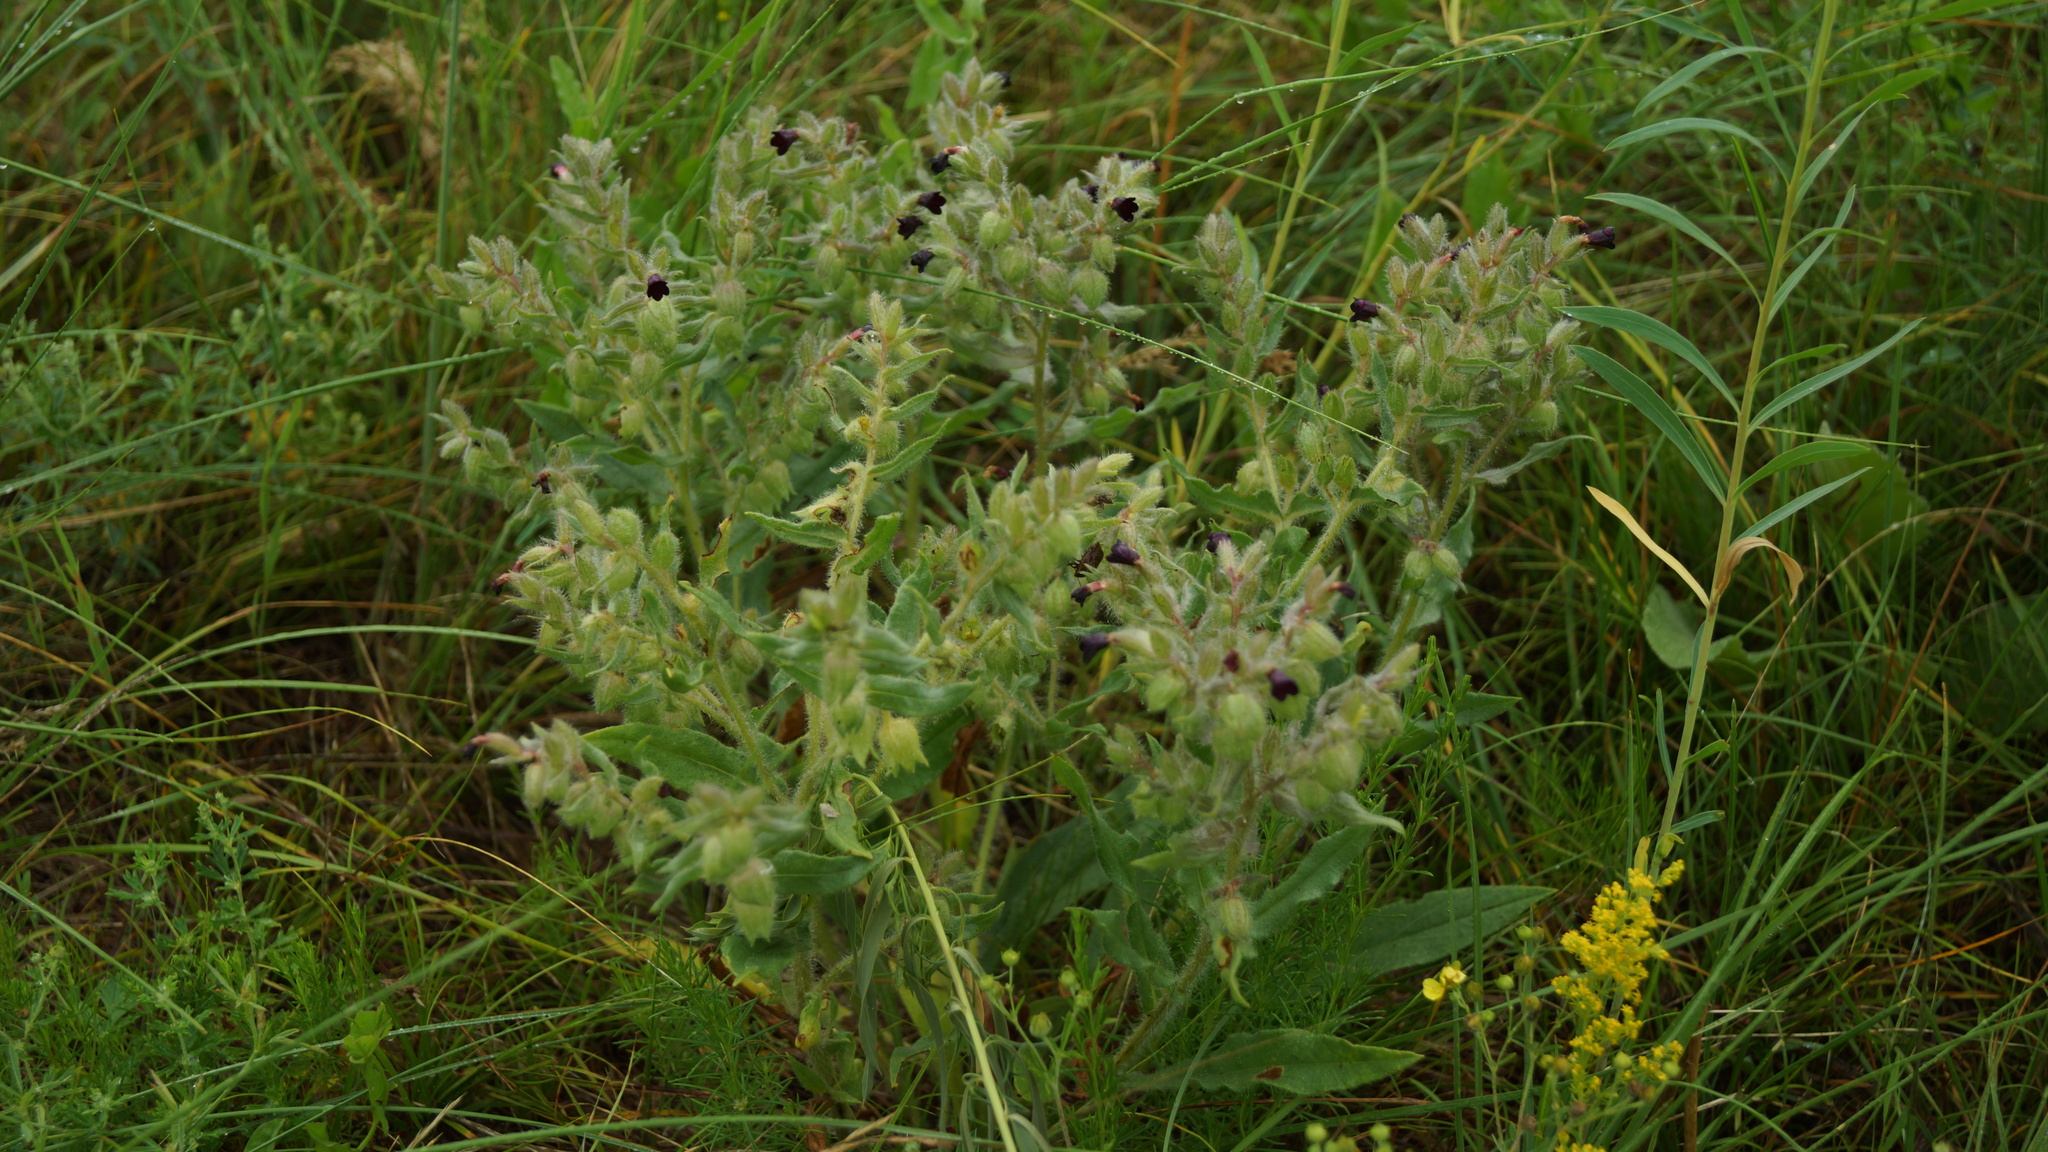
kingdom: Plantae
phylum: Tracheophyta
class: Magnoliopsida
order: Boraginales
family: Boraginaceae
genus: Nonea
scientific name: Nonea pulla
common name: Brown nonea
